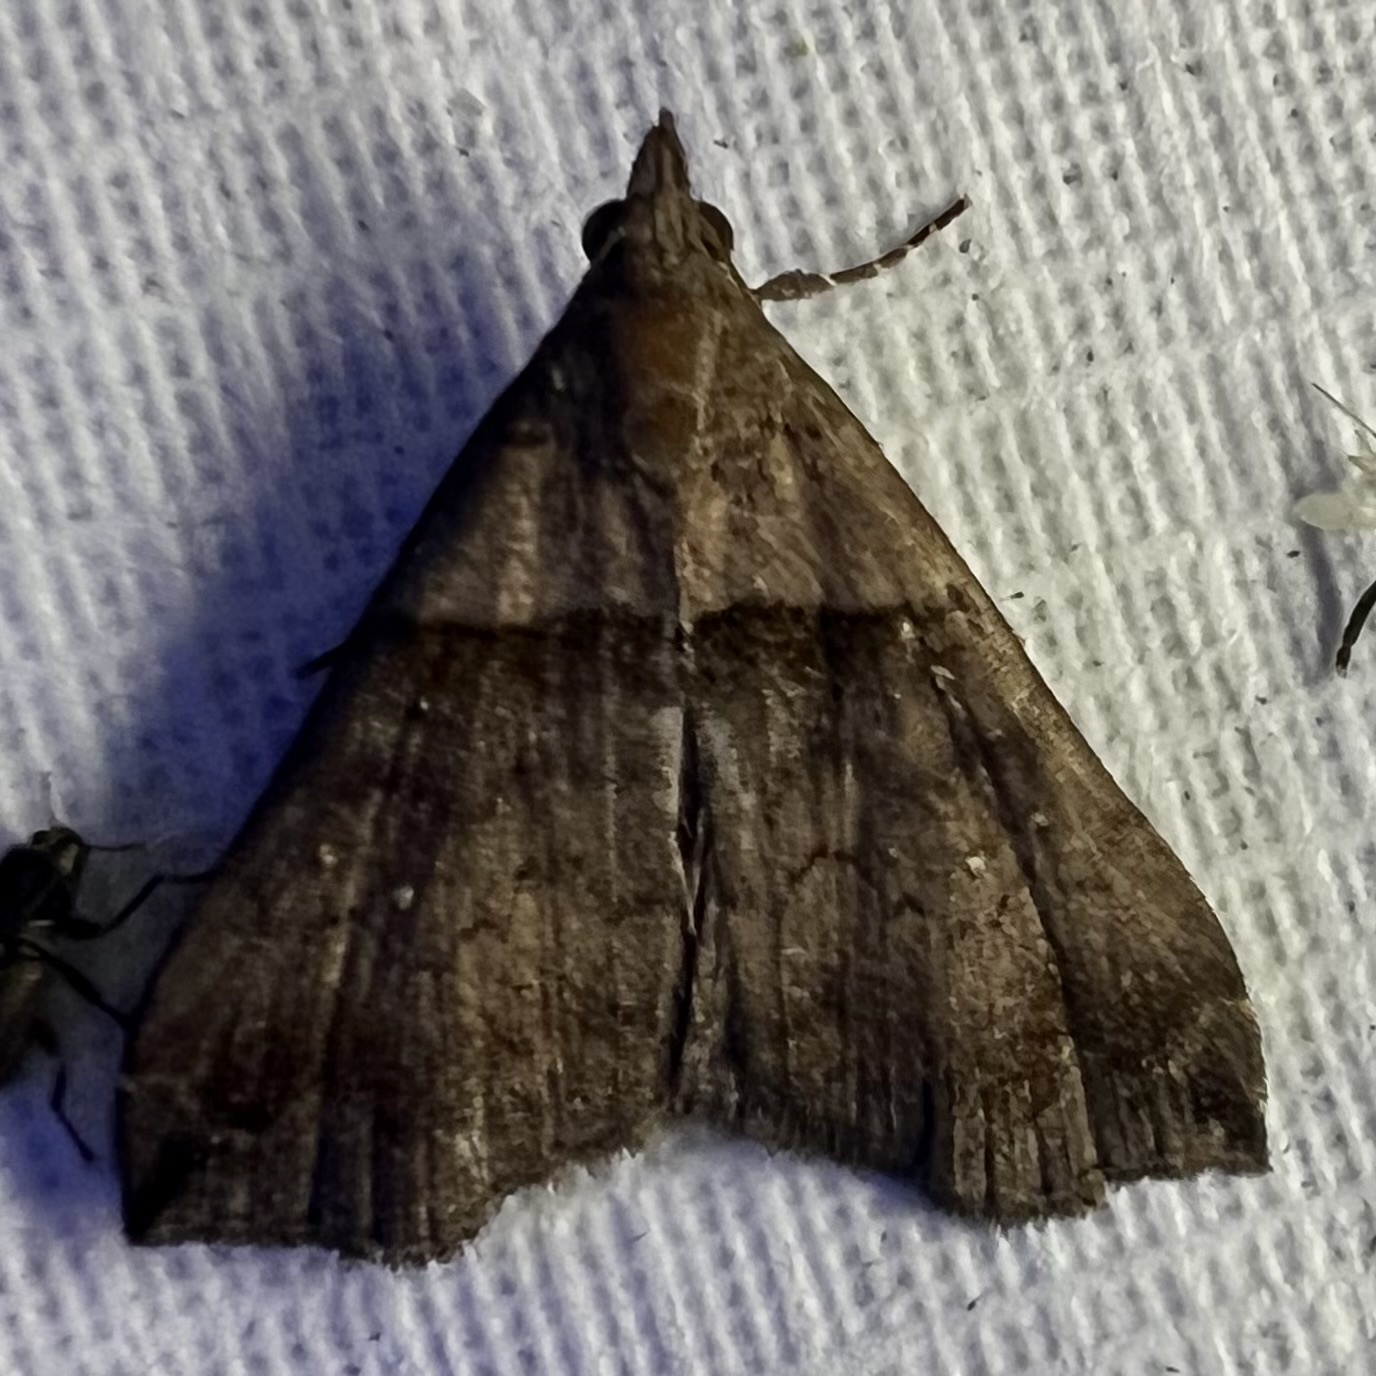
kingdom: Animalia
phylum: Arthropoda
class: Insecta
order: Lepidoptera
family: Erebidae
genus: Lascoria
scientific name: Lascoria ambigualis
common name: Ambiguous moth
